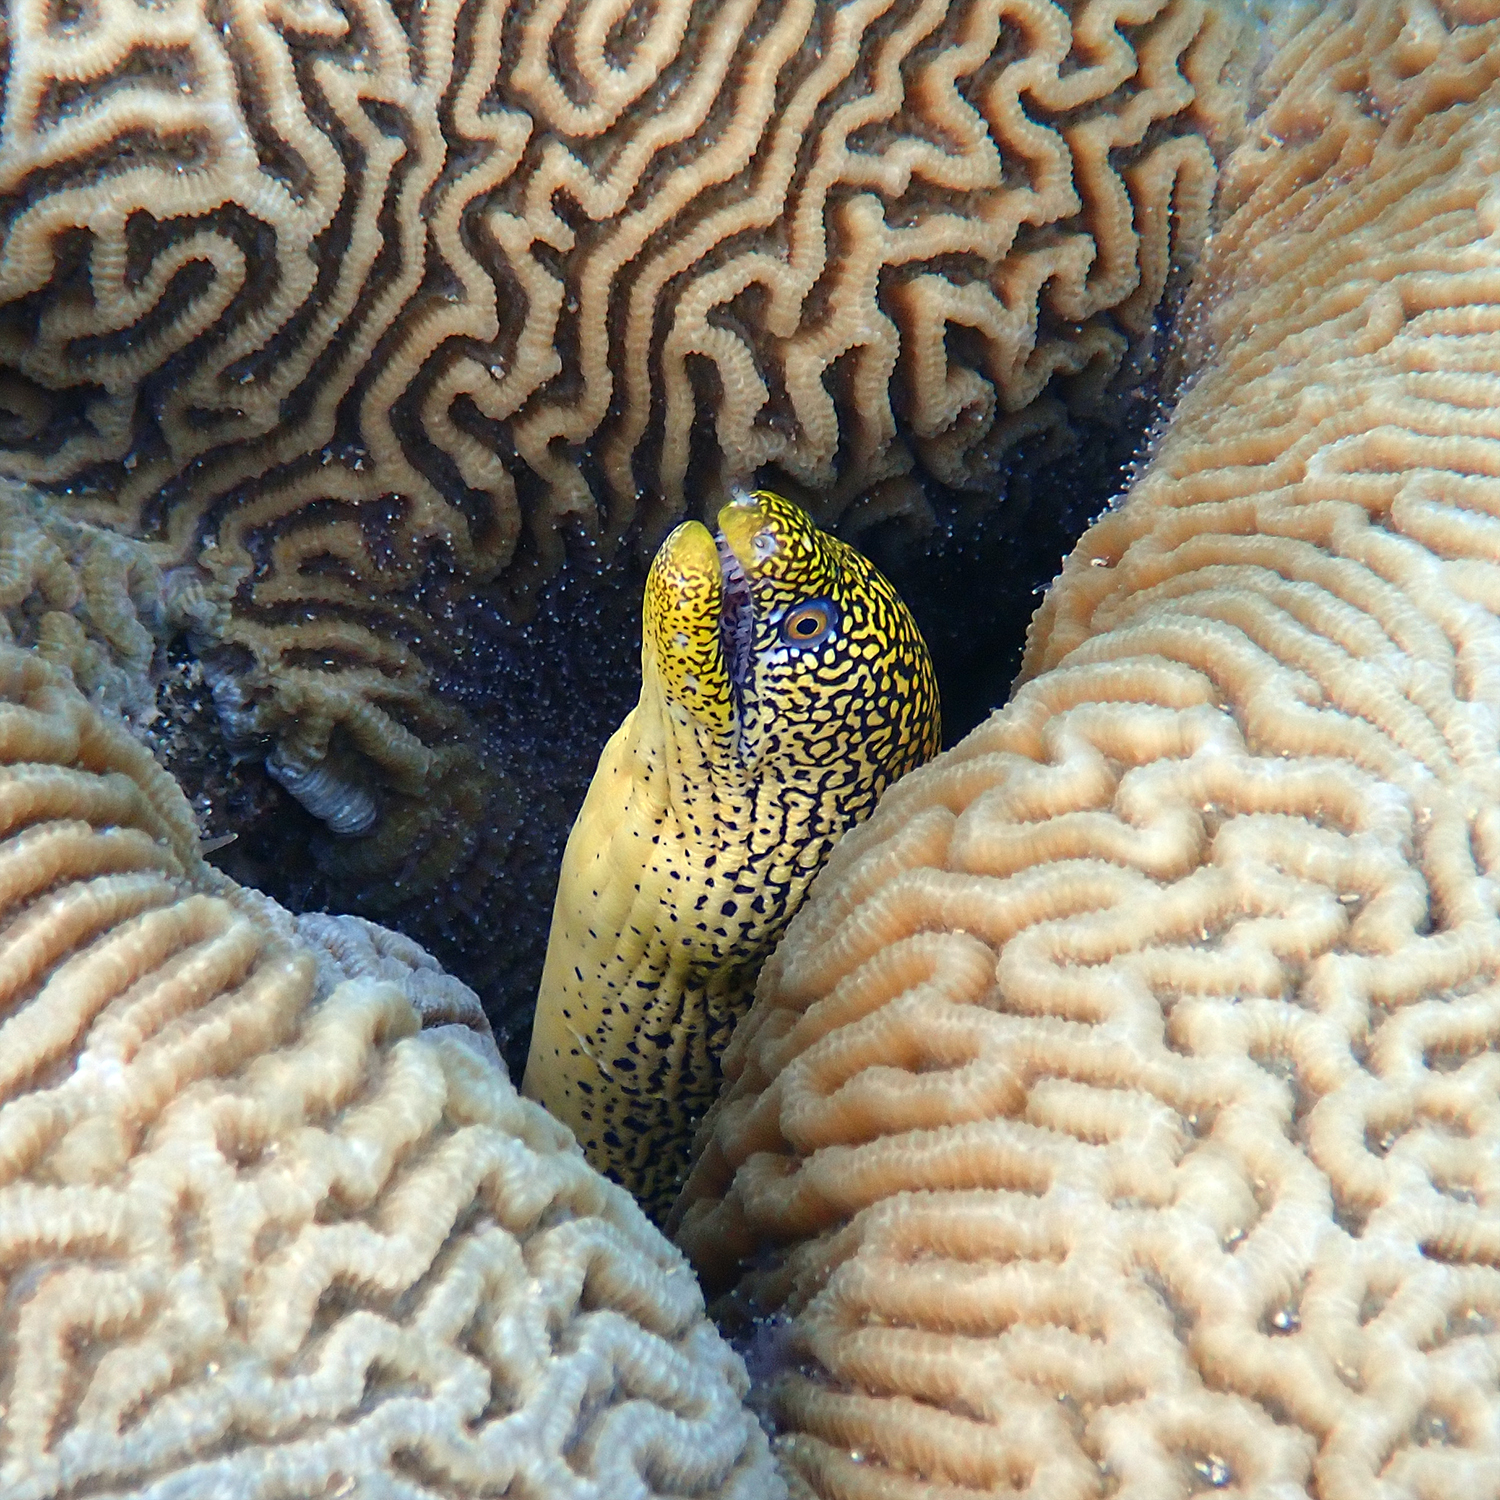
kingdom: Animalia
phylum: Chordata
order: Anguilliformes
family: Muraenidae
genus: Gymnothorax
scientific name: Gymnothorax eurostus
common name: Stout moray
